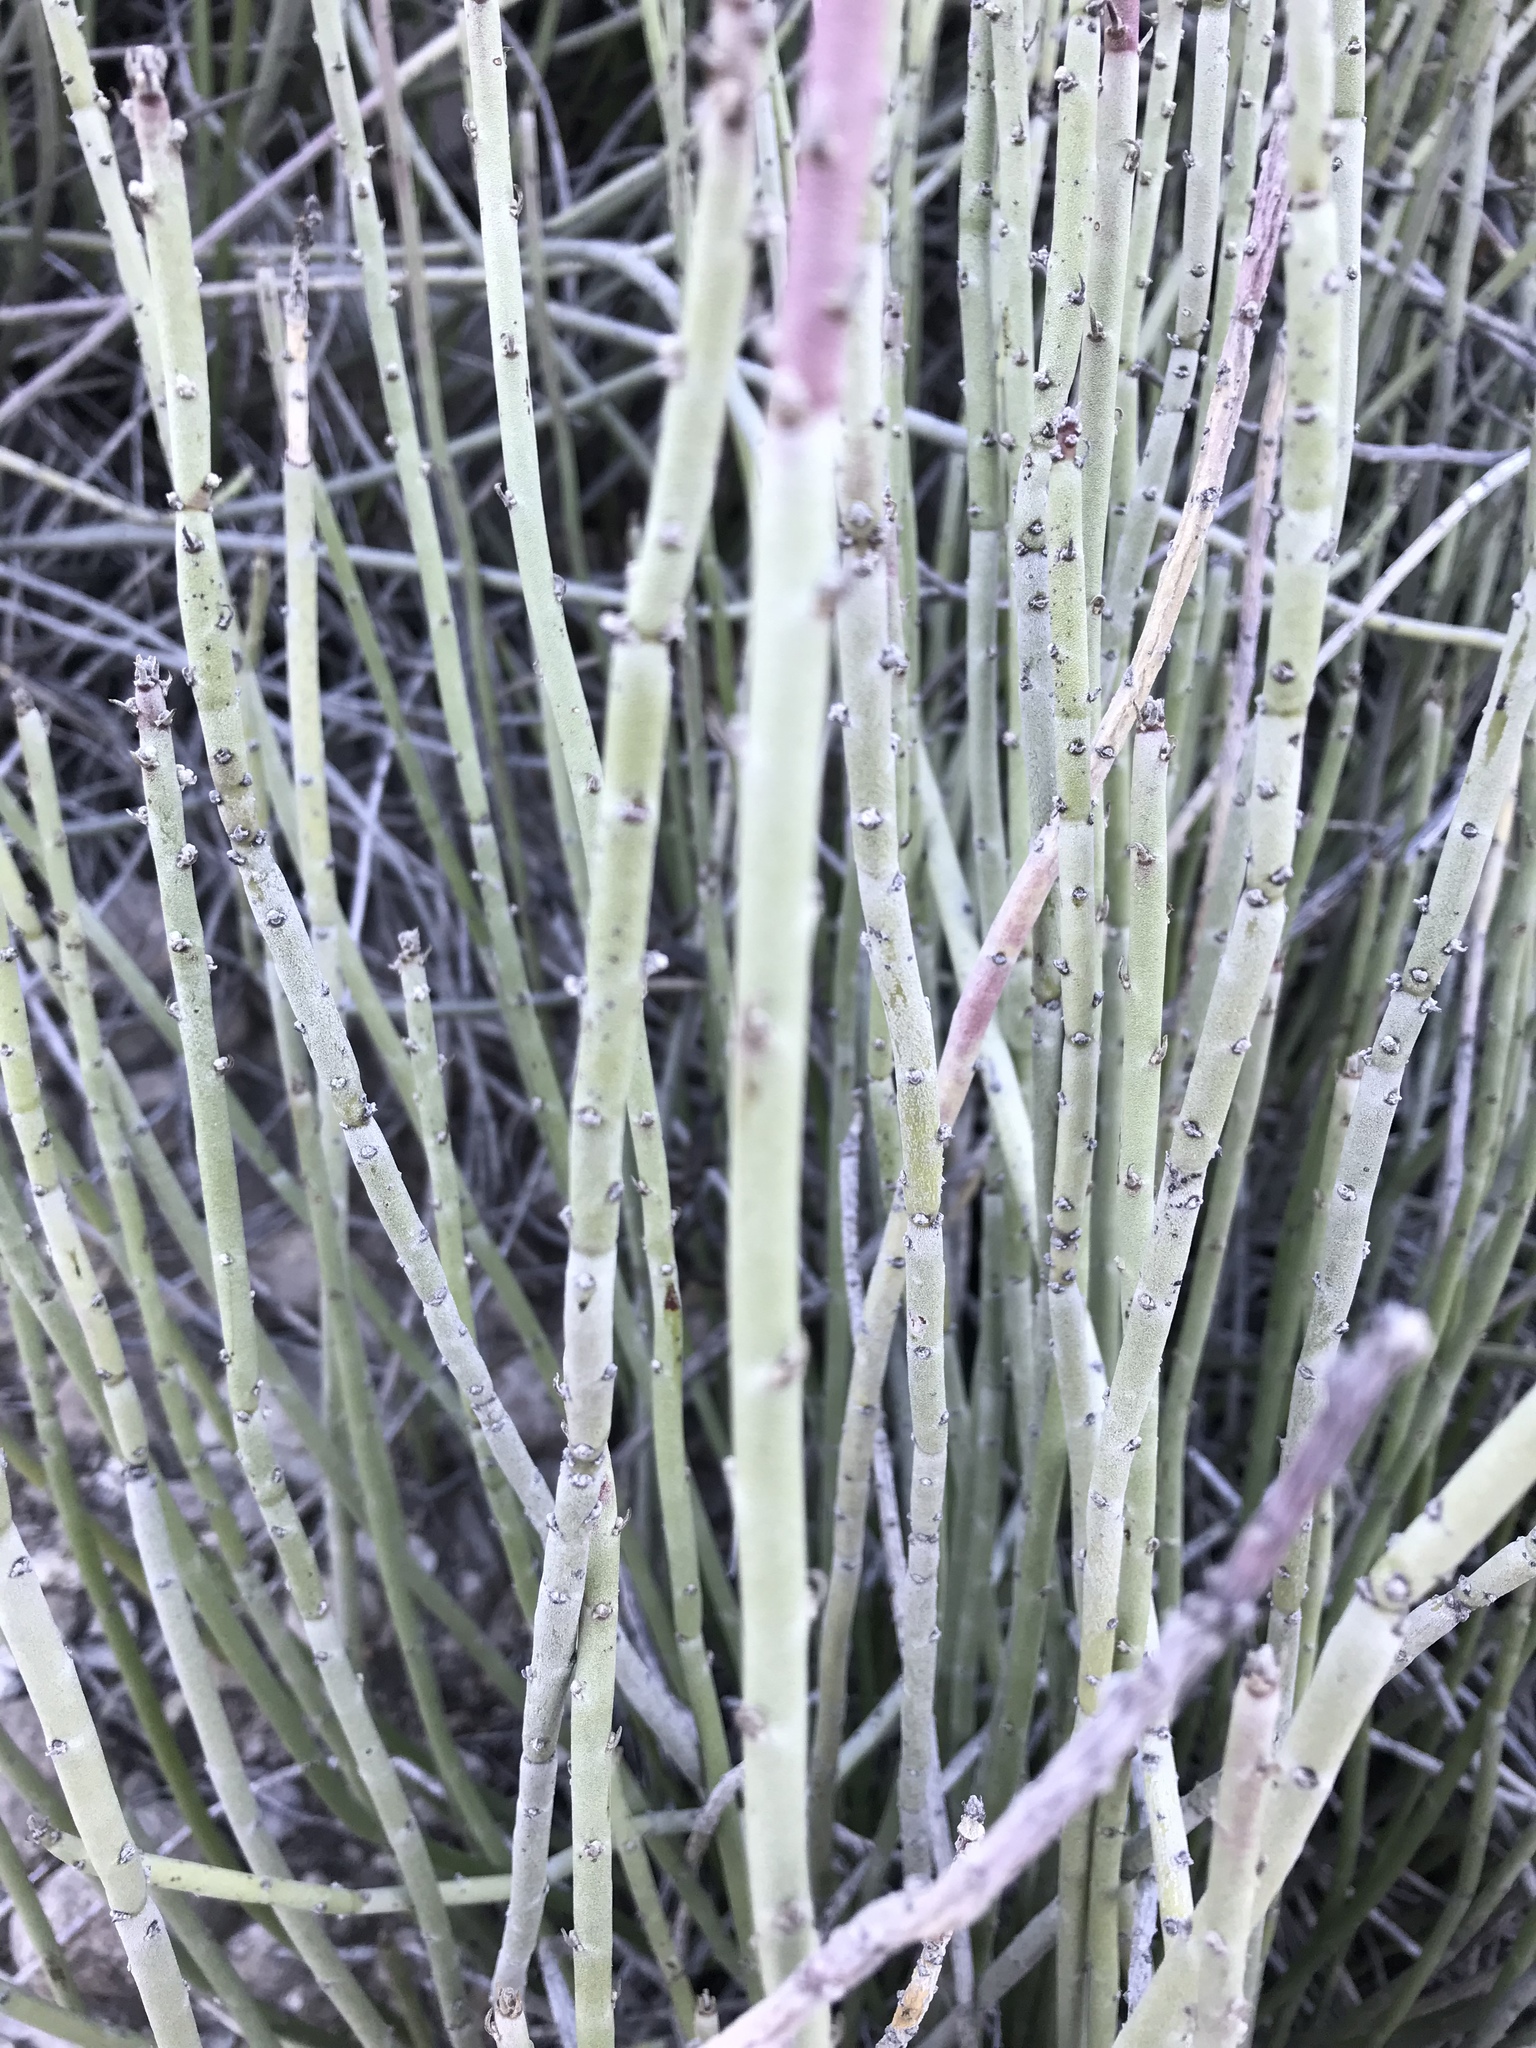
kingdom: Plantae
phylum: Tracheophyta
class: Magnoliopsida
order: Malpighiales
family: Euphorbiaceae
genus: Euphorbia
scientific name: Euphorbia antisyphilitica
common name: Candelilla
